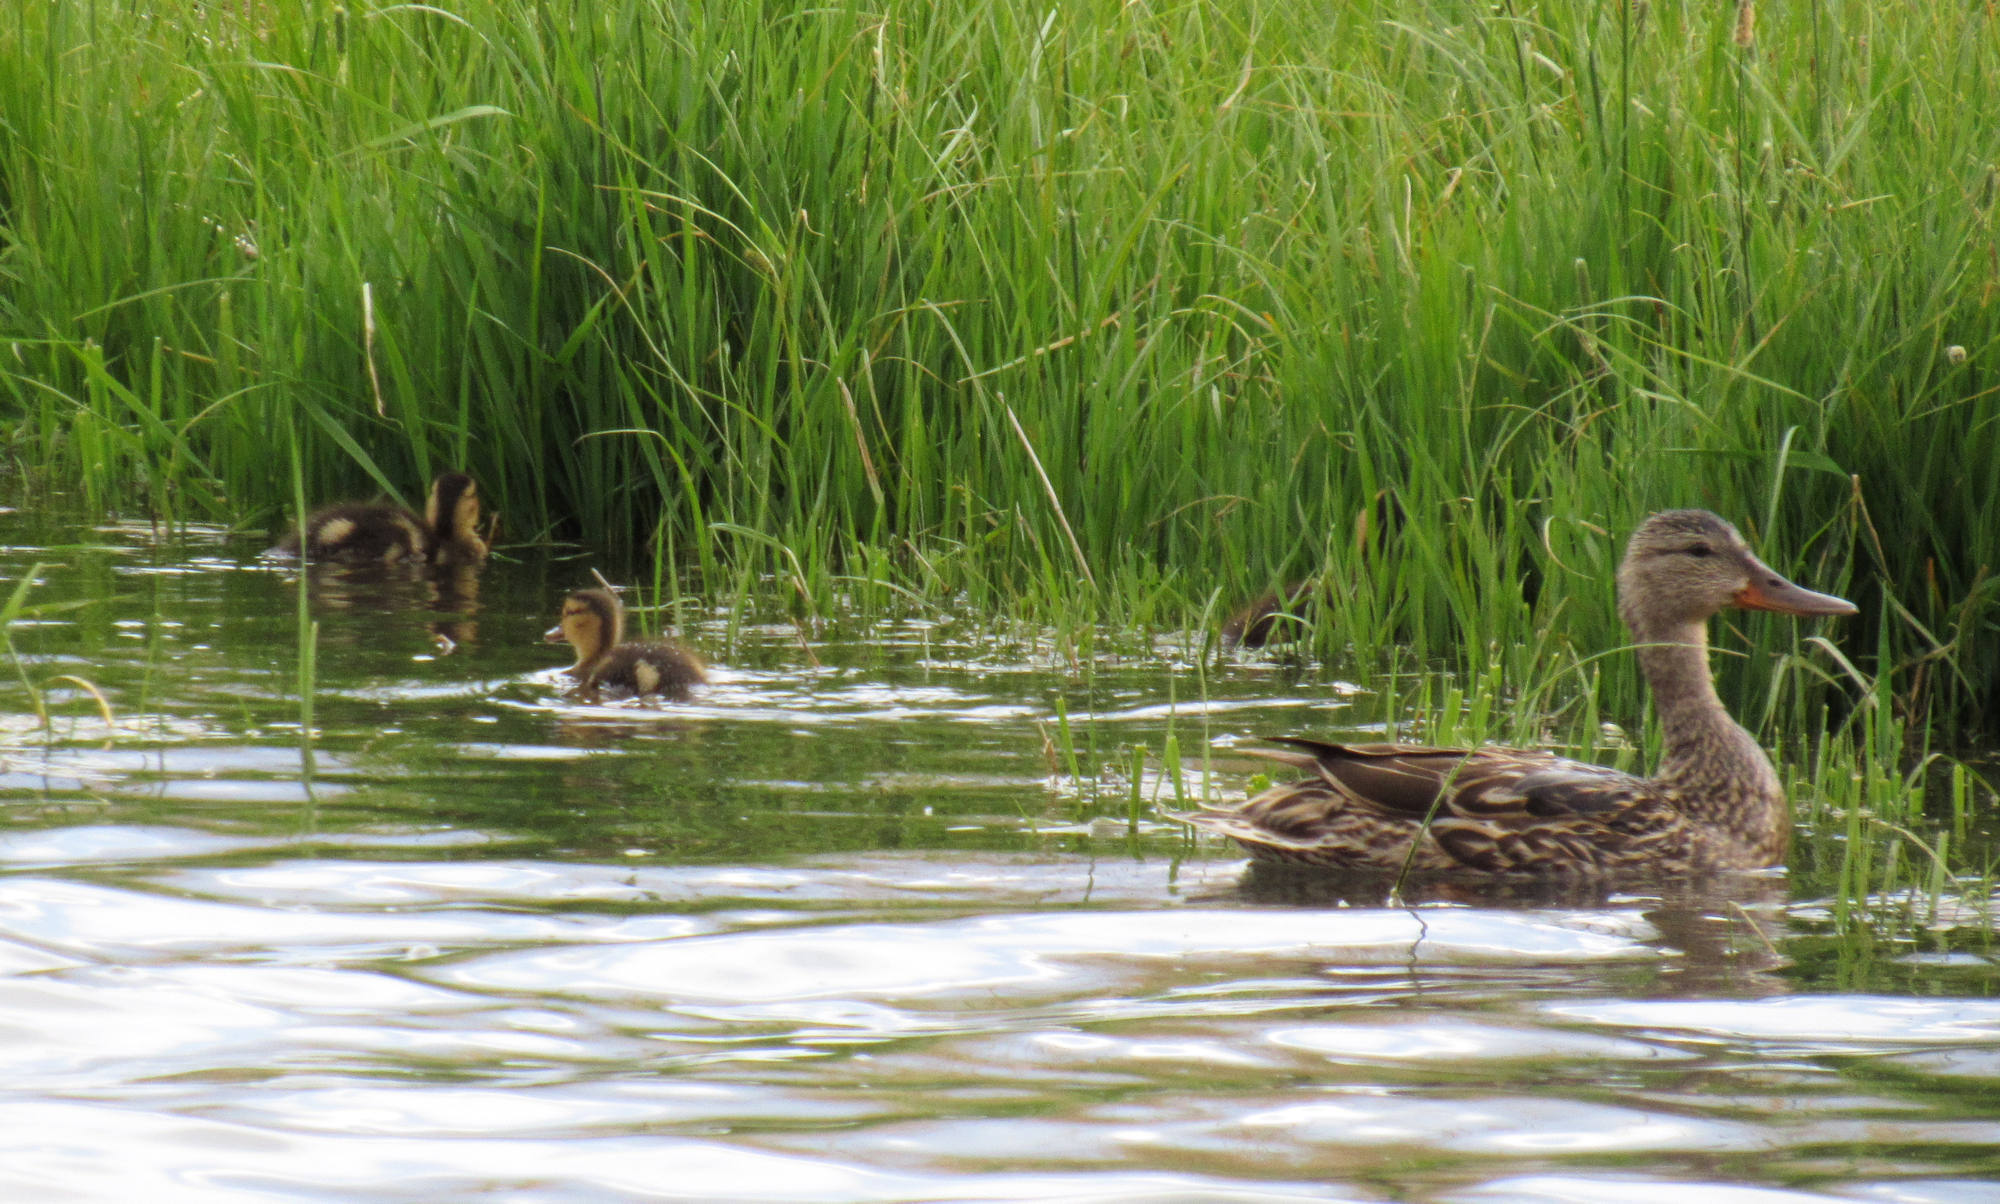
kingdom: Animalia
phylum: Chordata
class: Aves
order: Anseriformes
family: Anatidae
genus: Anas
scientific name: Anas platyrhynchos
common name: Mallard
